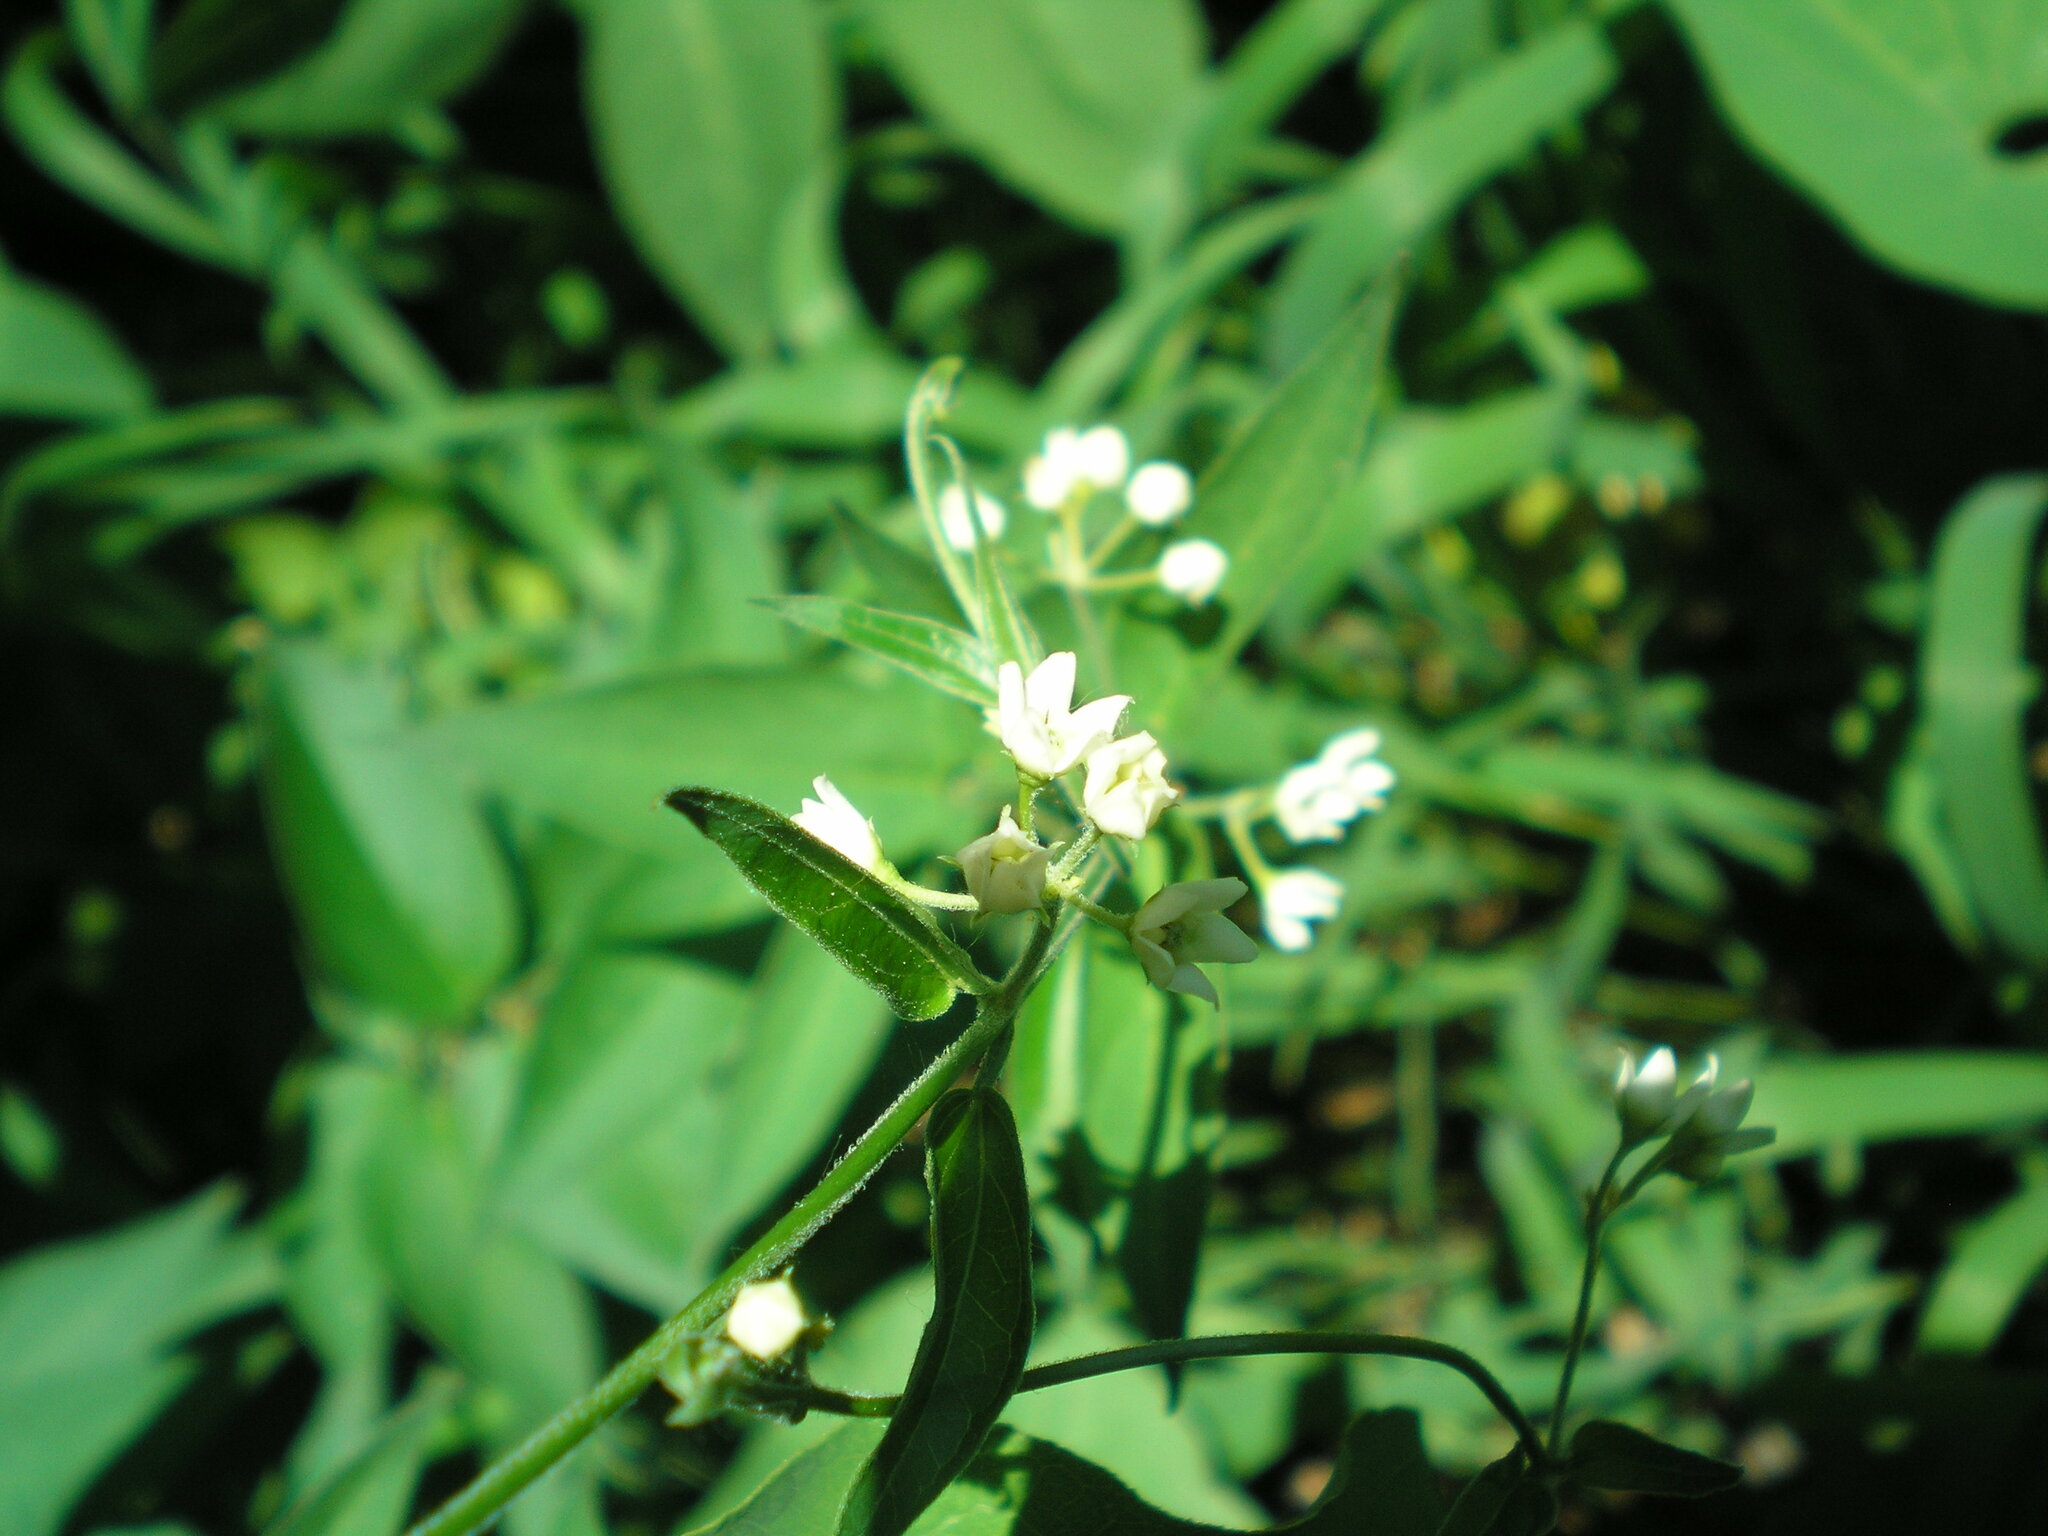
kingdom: Plantae
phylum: Tracheophyta
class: Magnoliopsida
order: Gentianales
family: Apocynaceae
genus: Vincetoxicum
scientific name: Vincetoxicum hirundinaria
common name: White swallowwort
